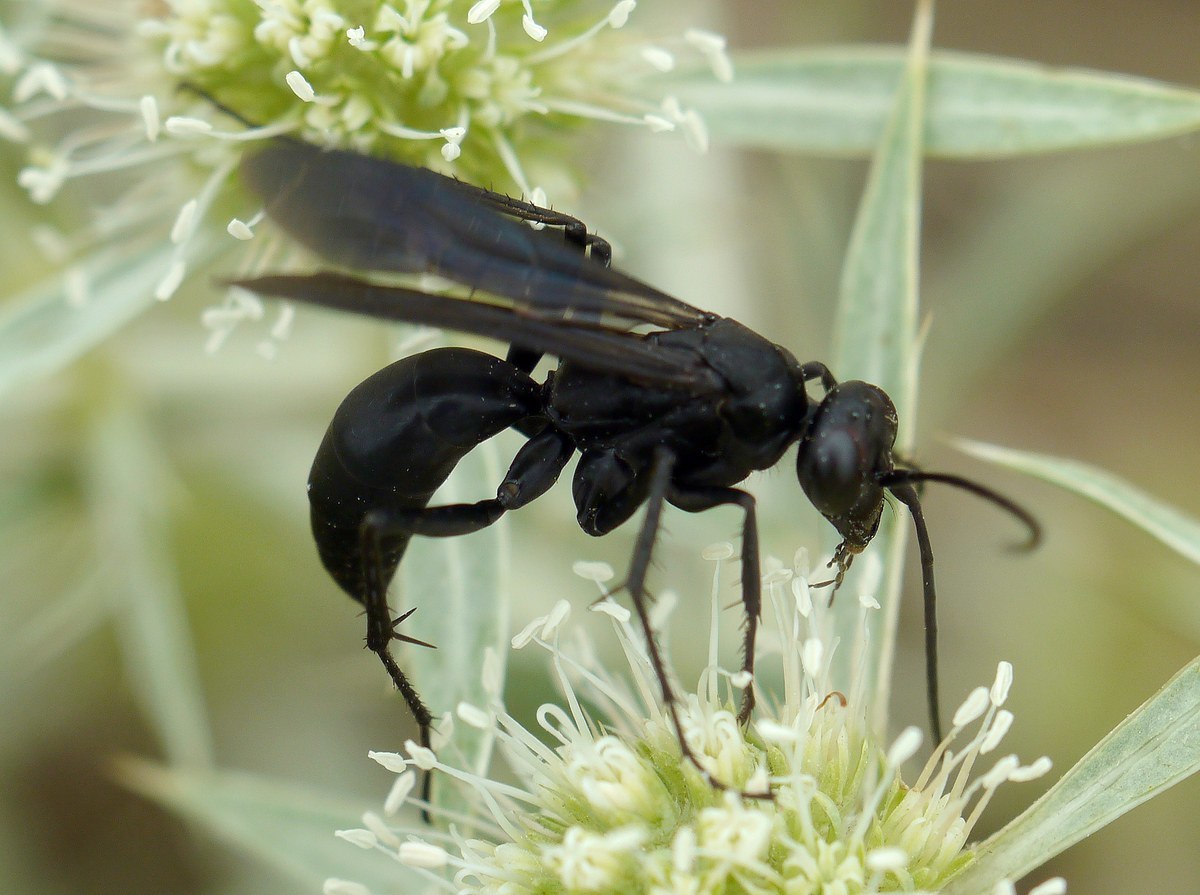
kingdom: Animalia
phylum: Arthropoda
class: Insecta
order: Hymenoptera
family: Pompilidae
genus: Agenioideus
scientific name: Agenioideus excisus
